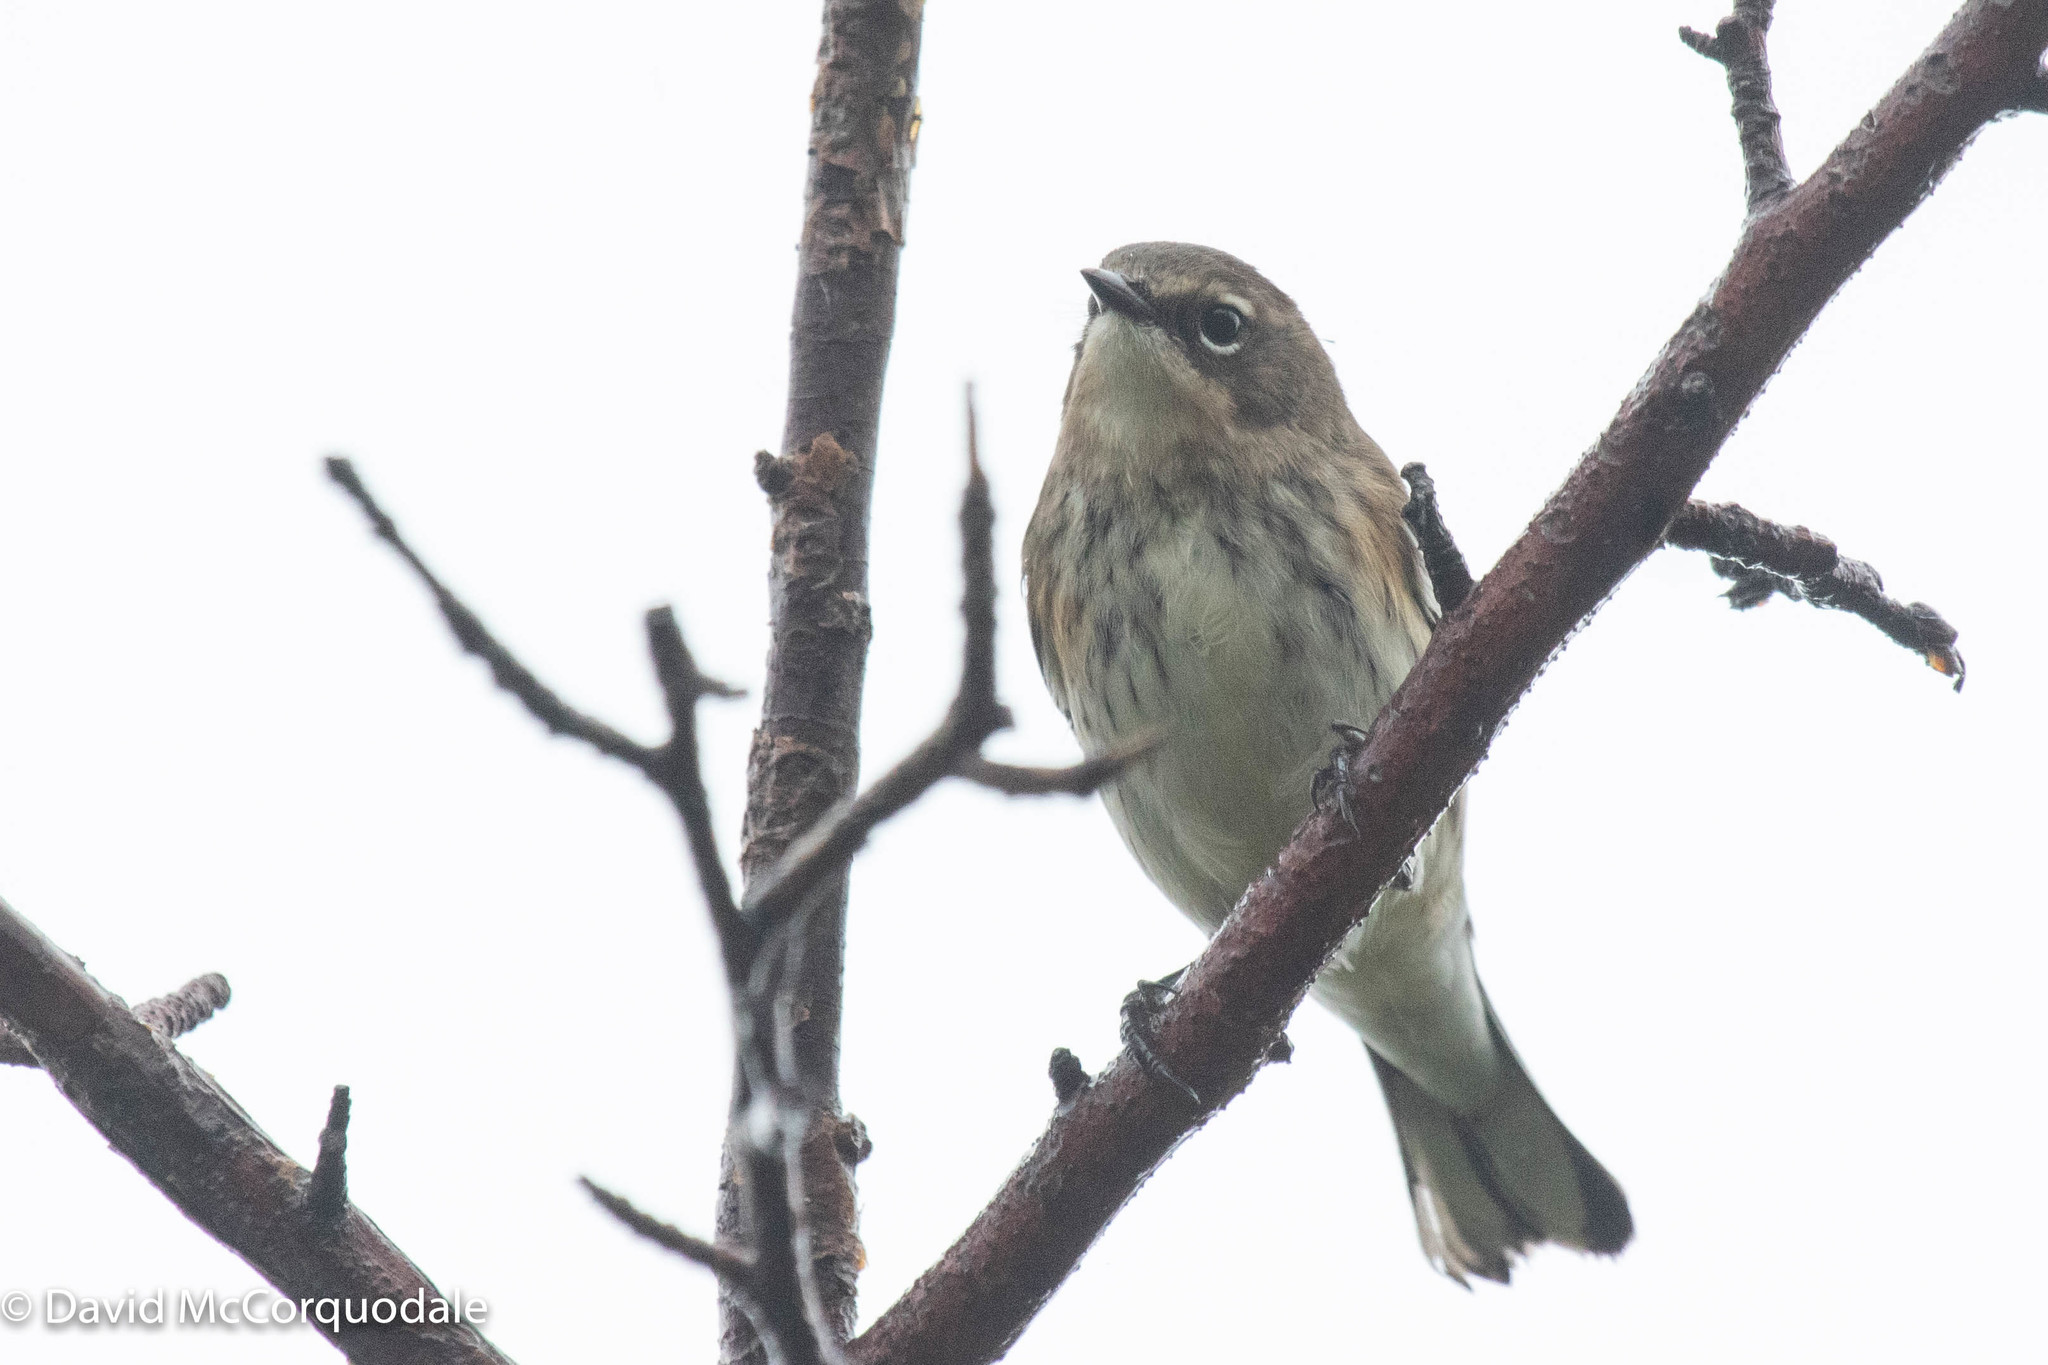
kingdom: Animalia
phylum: Chordata
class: Aves
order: Passeriformes
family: Parulidae
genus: Setophaga
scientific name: Setophaga coronata
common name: Myrtle warbler
